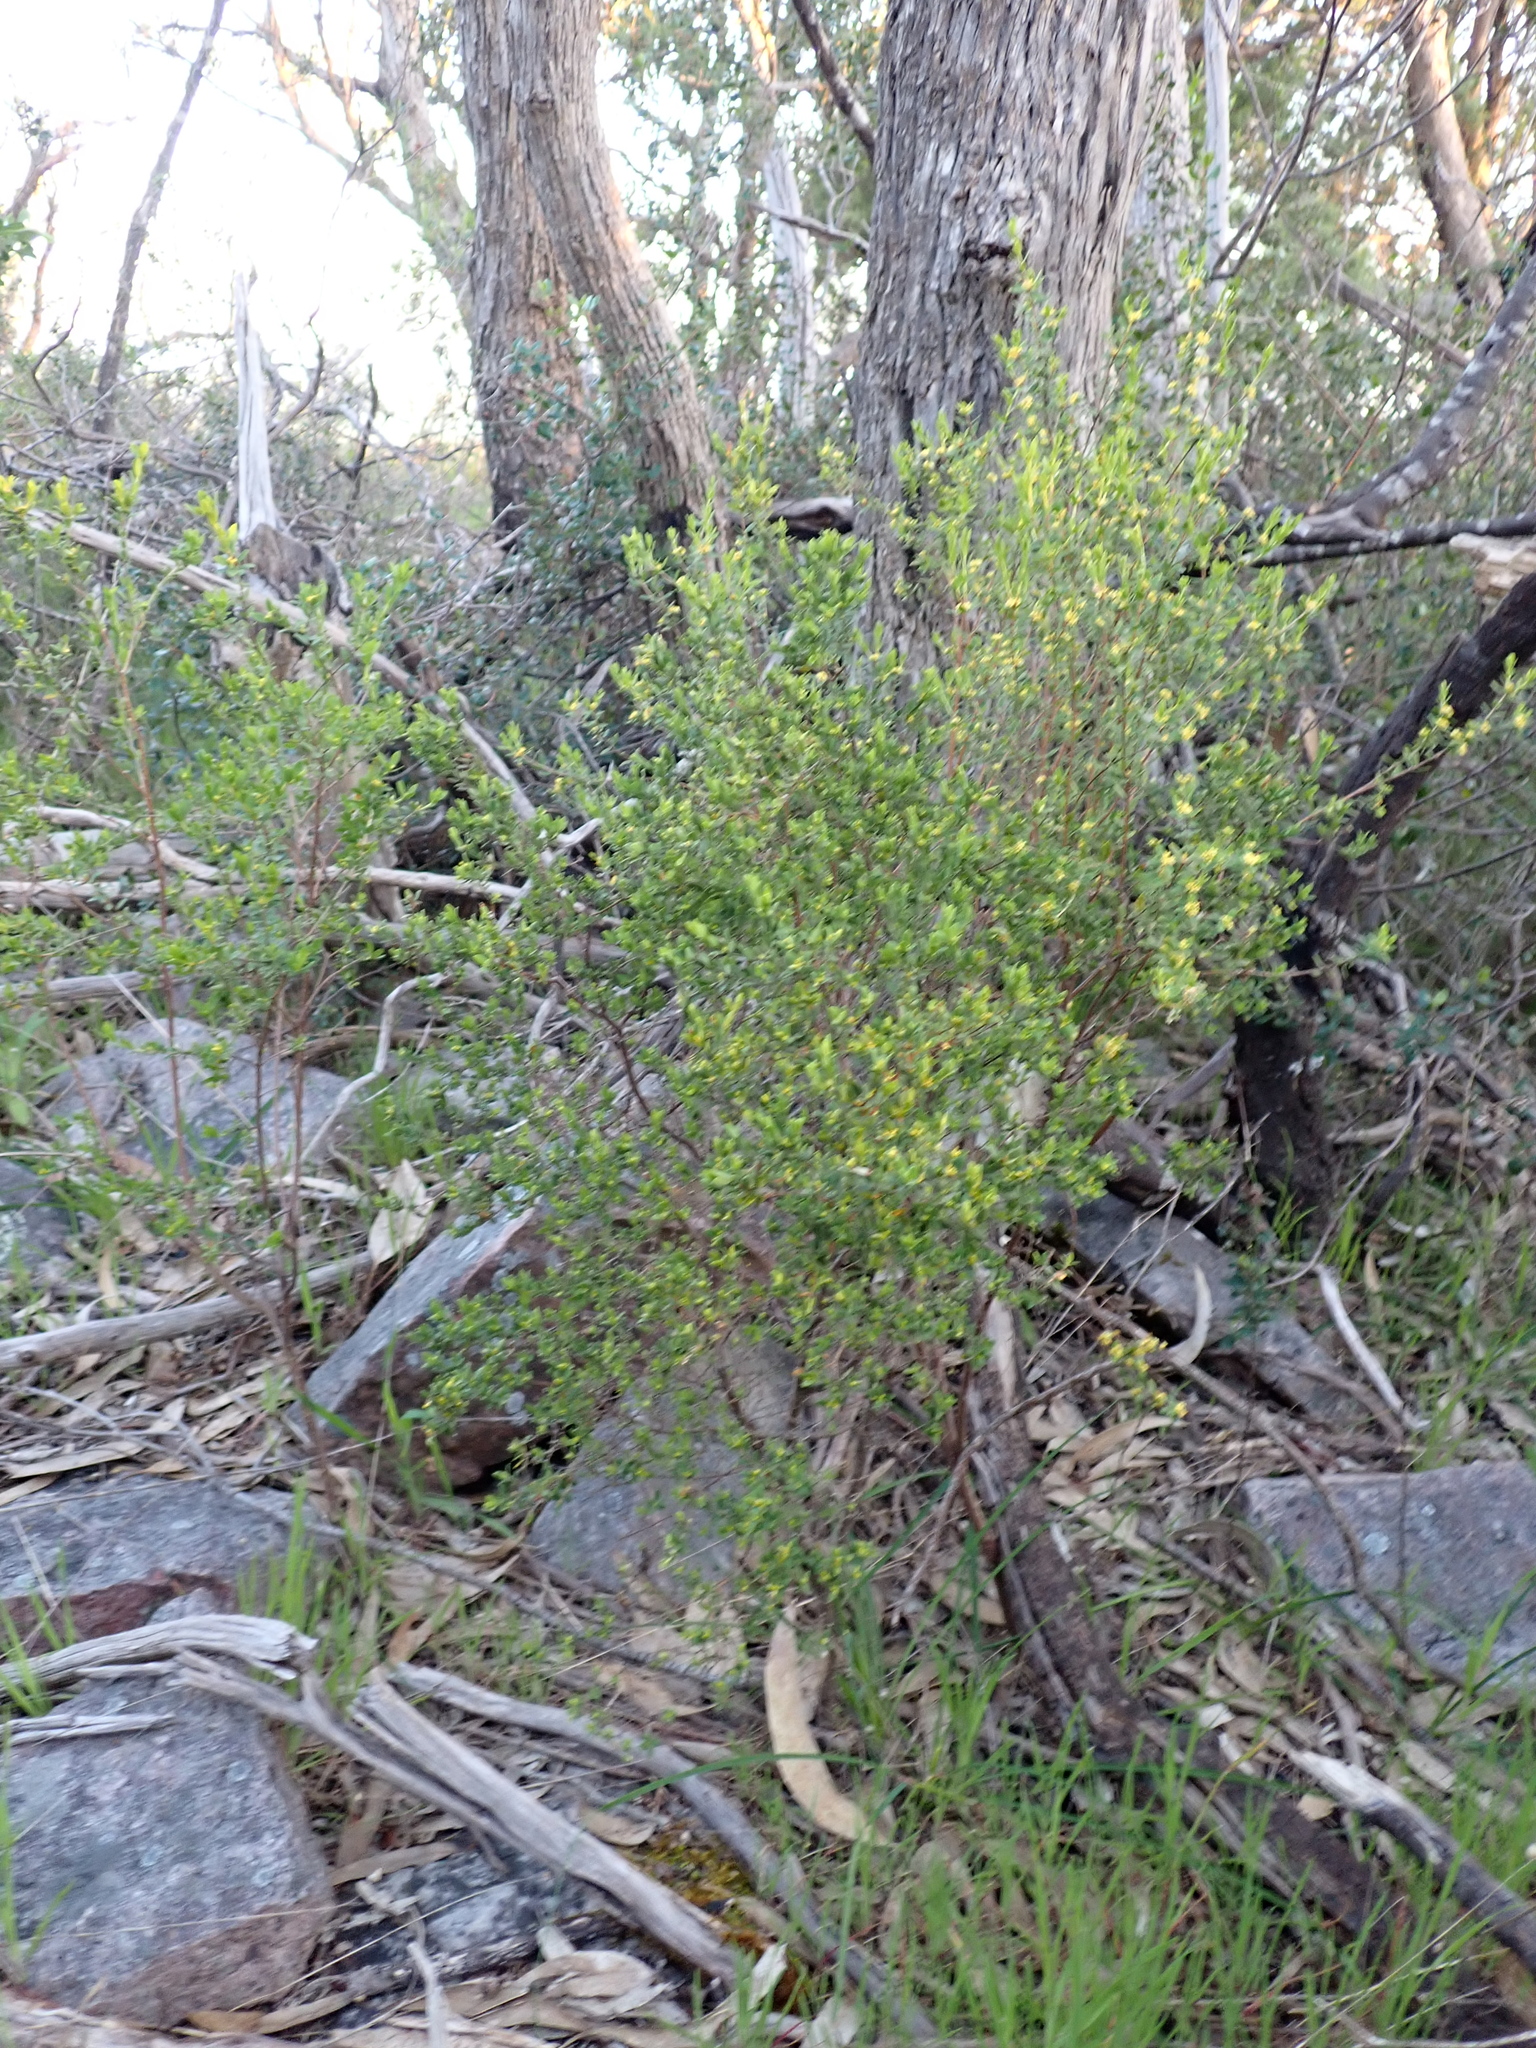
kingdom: Plantae
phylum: Tracheophyta
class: Magnoliopsida
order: Malvales
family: Thymelaeaceae
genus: Pimelea
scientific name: Pimelea hewardiana
